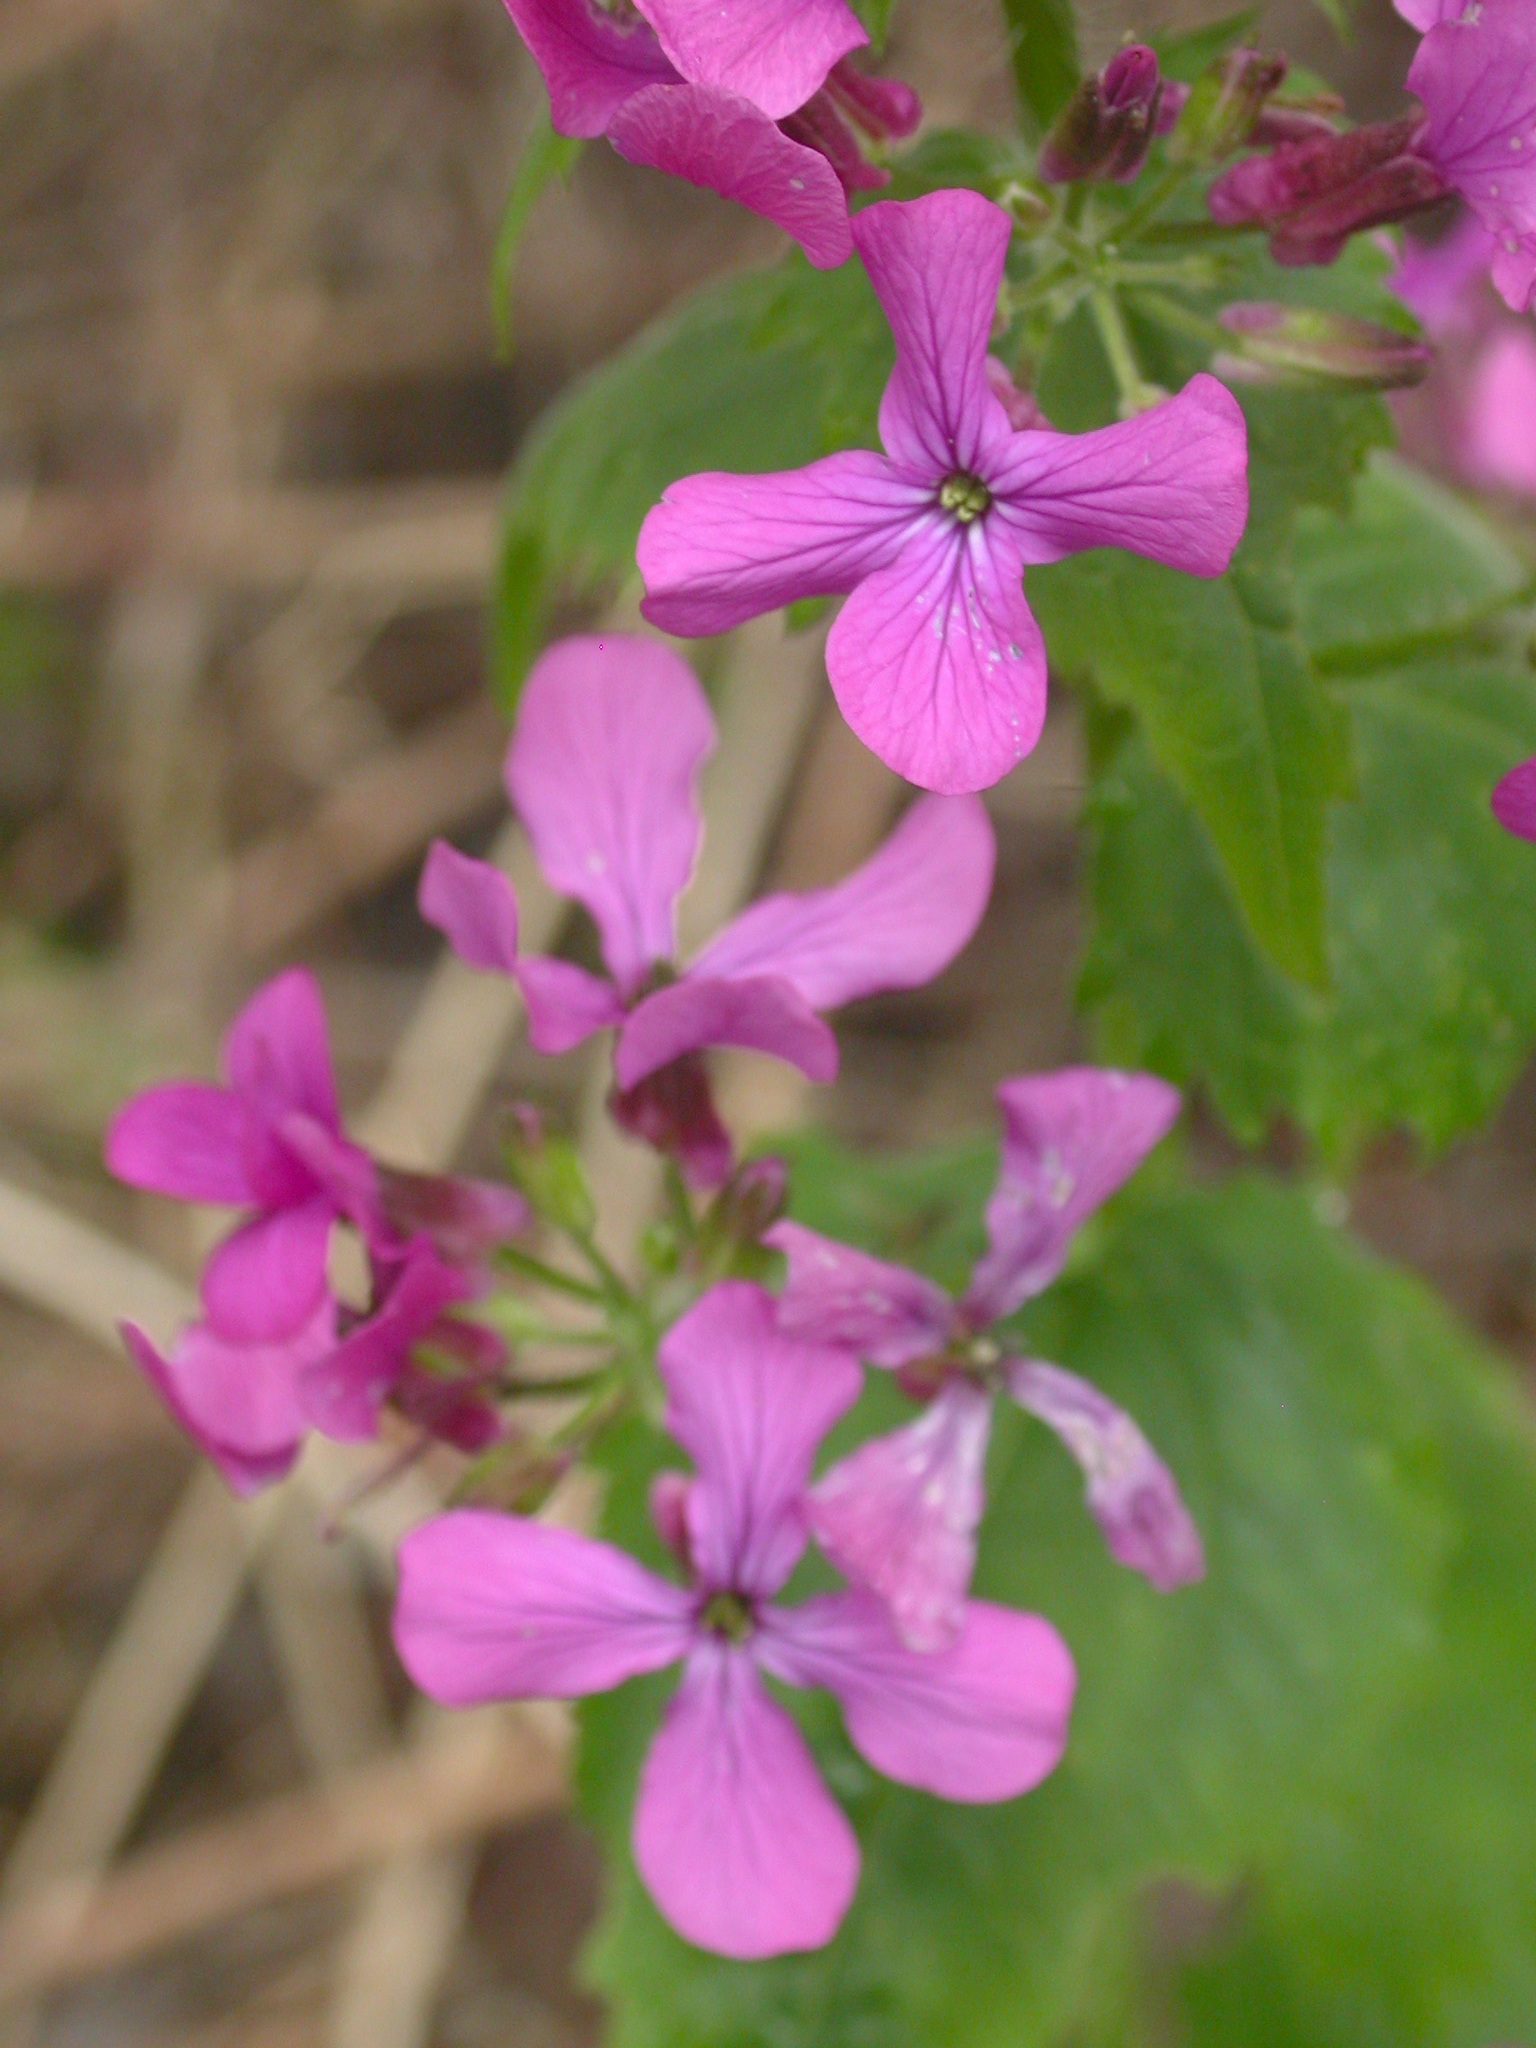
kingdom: Plantae
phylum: Tracheophyta
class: Magnoliopsida
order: Brassicales
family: Brassicaceae
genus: Lunaria
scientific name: Lunaria annua
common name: Honesty
